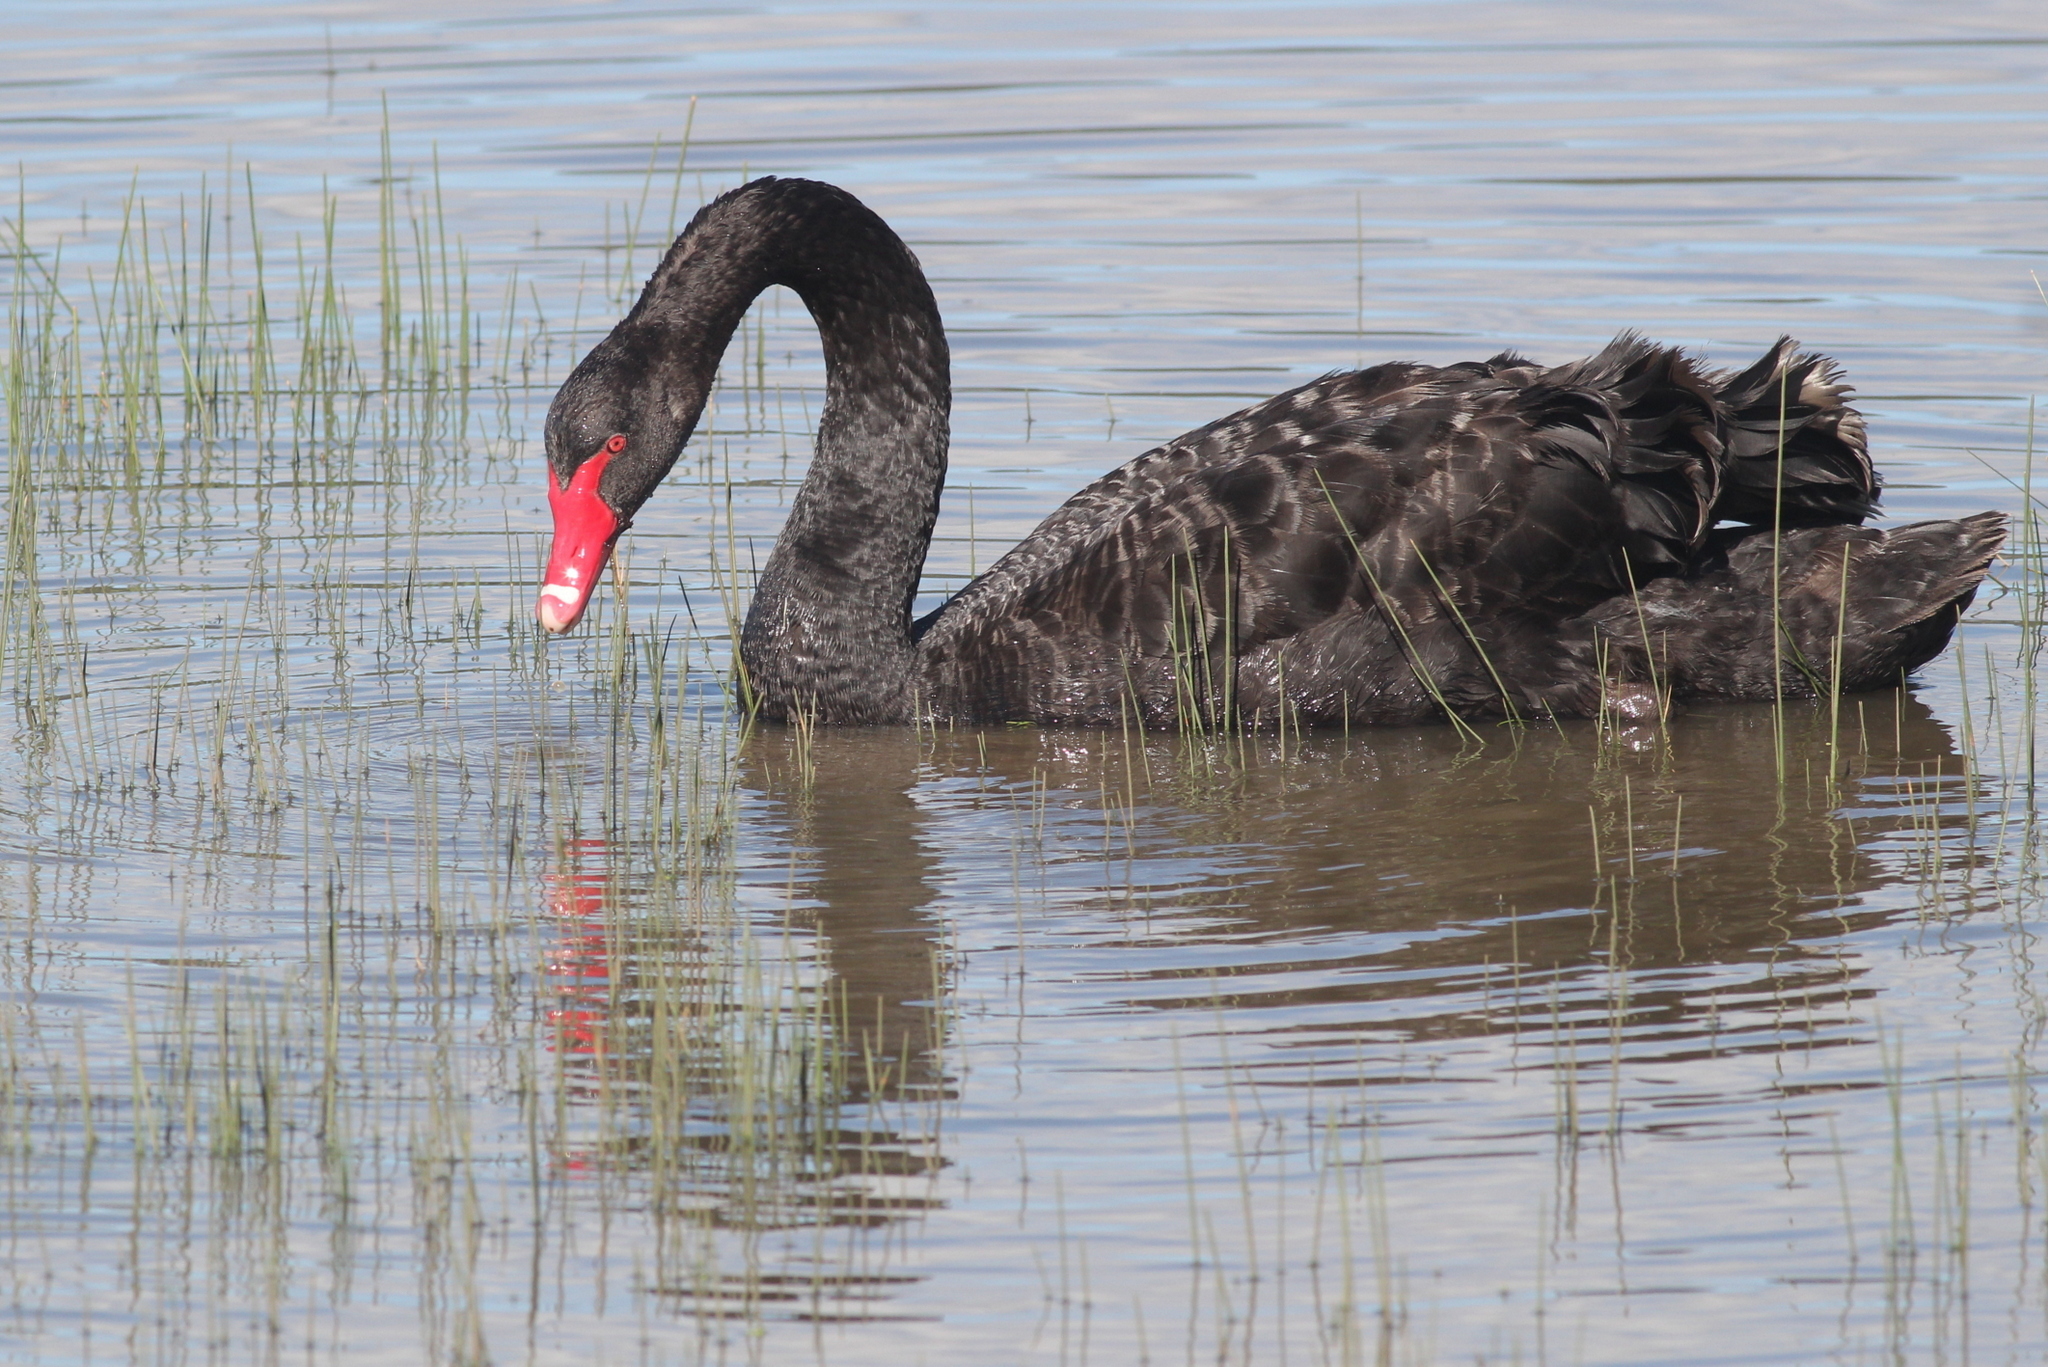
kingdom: Animalia
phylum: Chordata
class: Aves
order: Anseriformes
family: Anatidae
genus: Cygnus
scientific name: Cygnus atratus
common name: Black swan
